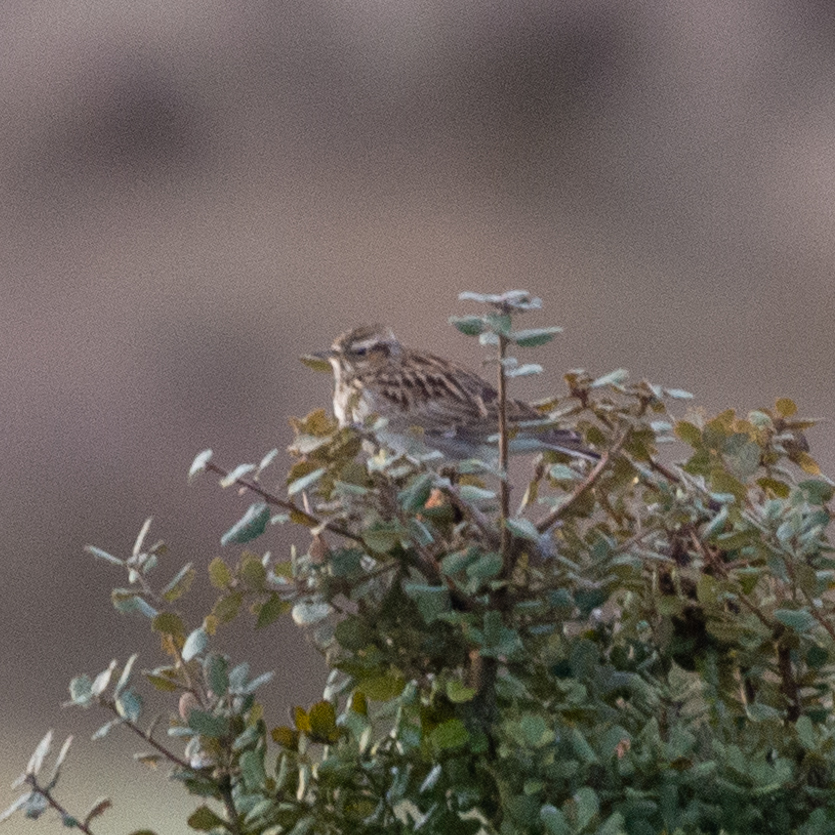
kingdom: Animalia
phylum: Chordata
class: Aves
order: Passeriformes
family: Alaudidae
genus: Lullula
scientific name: Lullula arborea
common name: Woodlark
